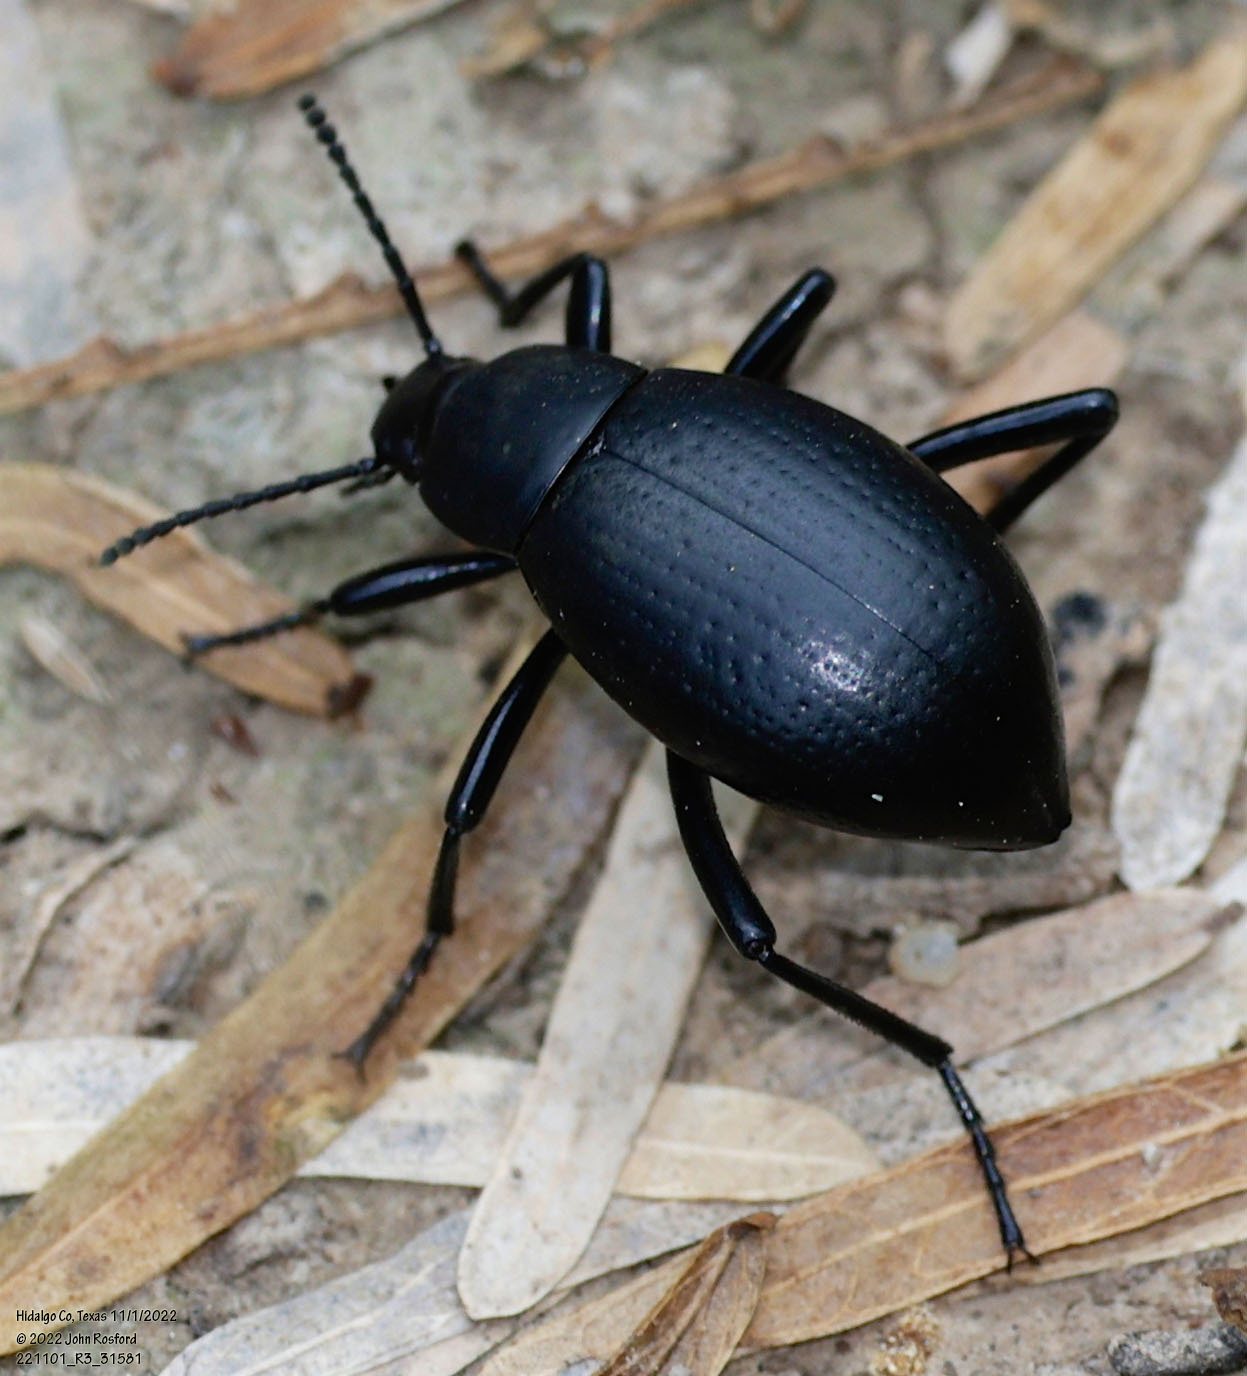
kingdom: Animalia
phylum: Arthropoda
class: Insecta
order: Coleoptera
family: Tenebrionidae
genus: Eleodes
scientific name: Eleodes goryi
